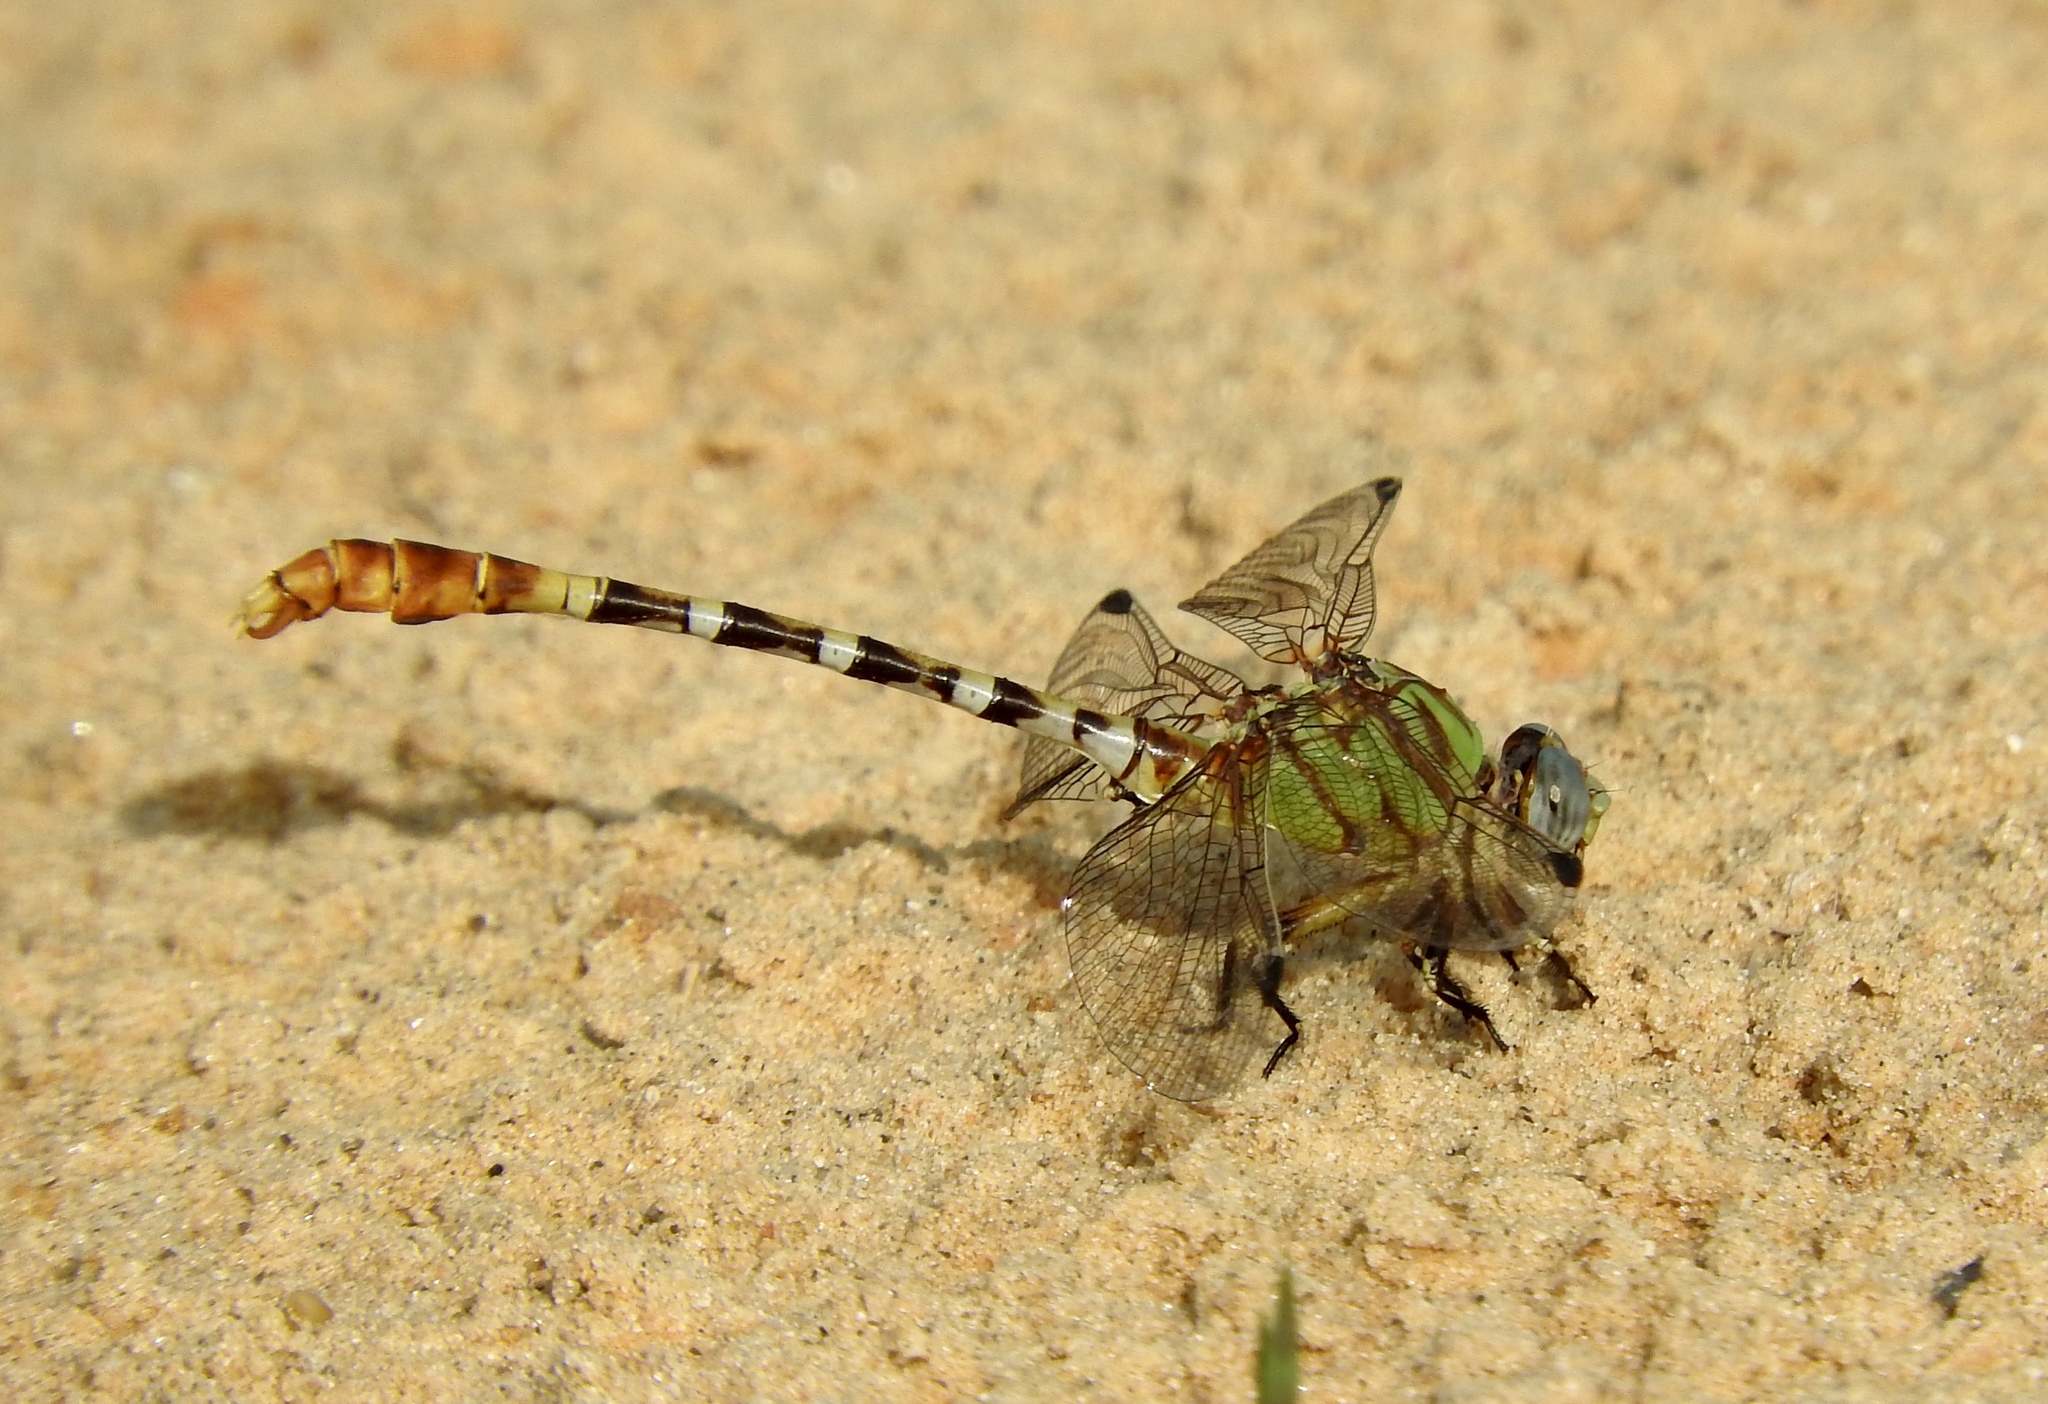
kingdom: Animalia
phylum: Arthropoda
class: Insecta
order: Odonata
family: Gomphidae
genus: Erpetogomphus
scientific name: Erpetogomphus designatus
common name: Eastern ringtail
